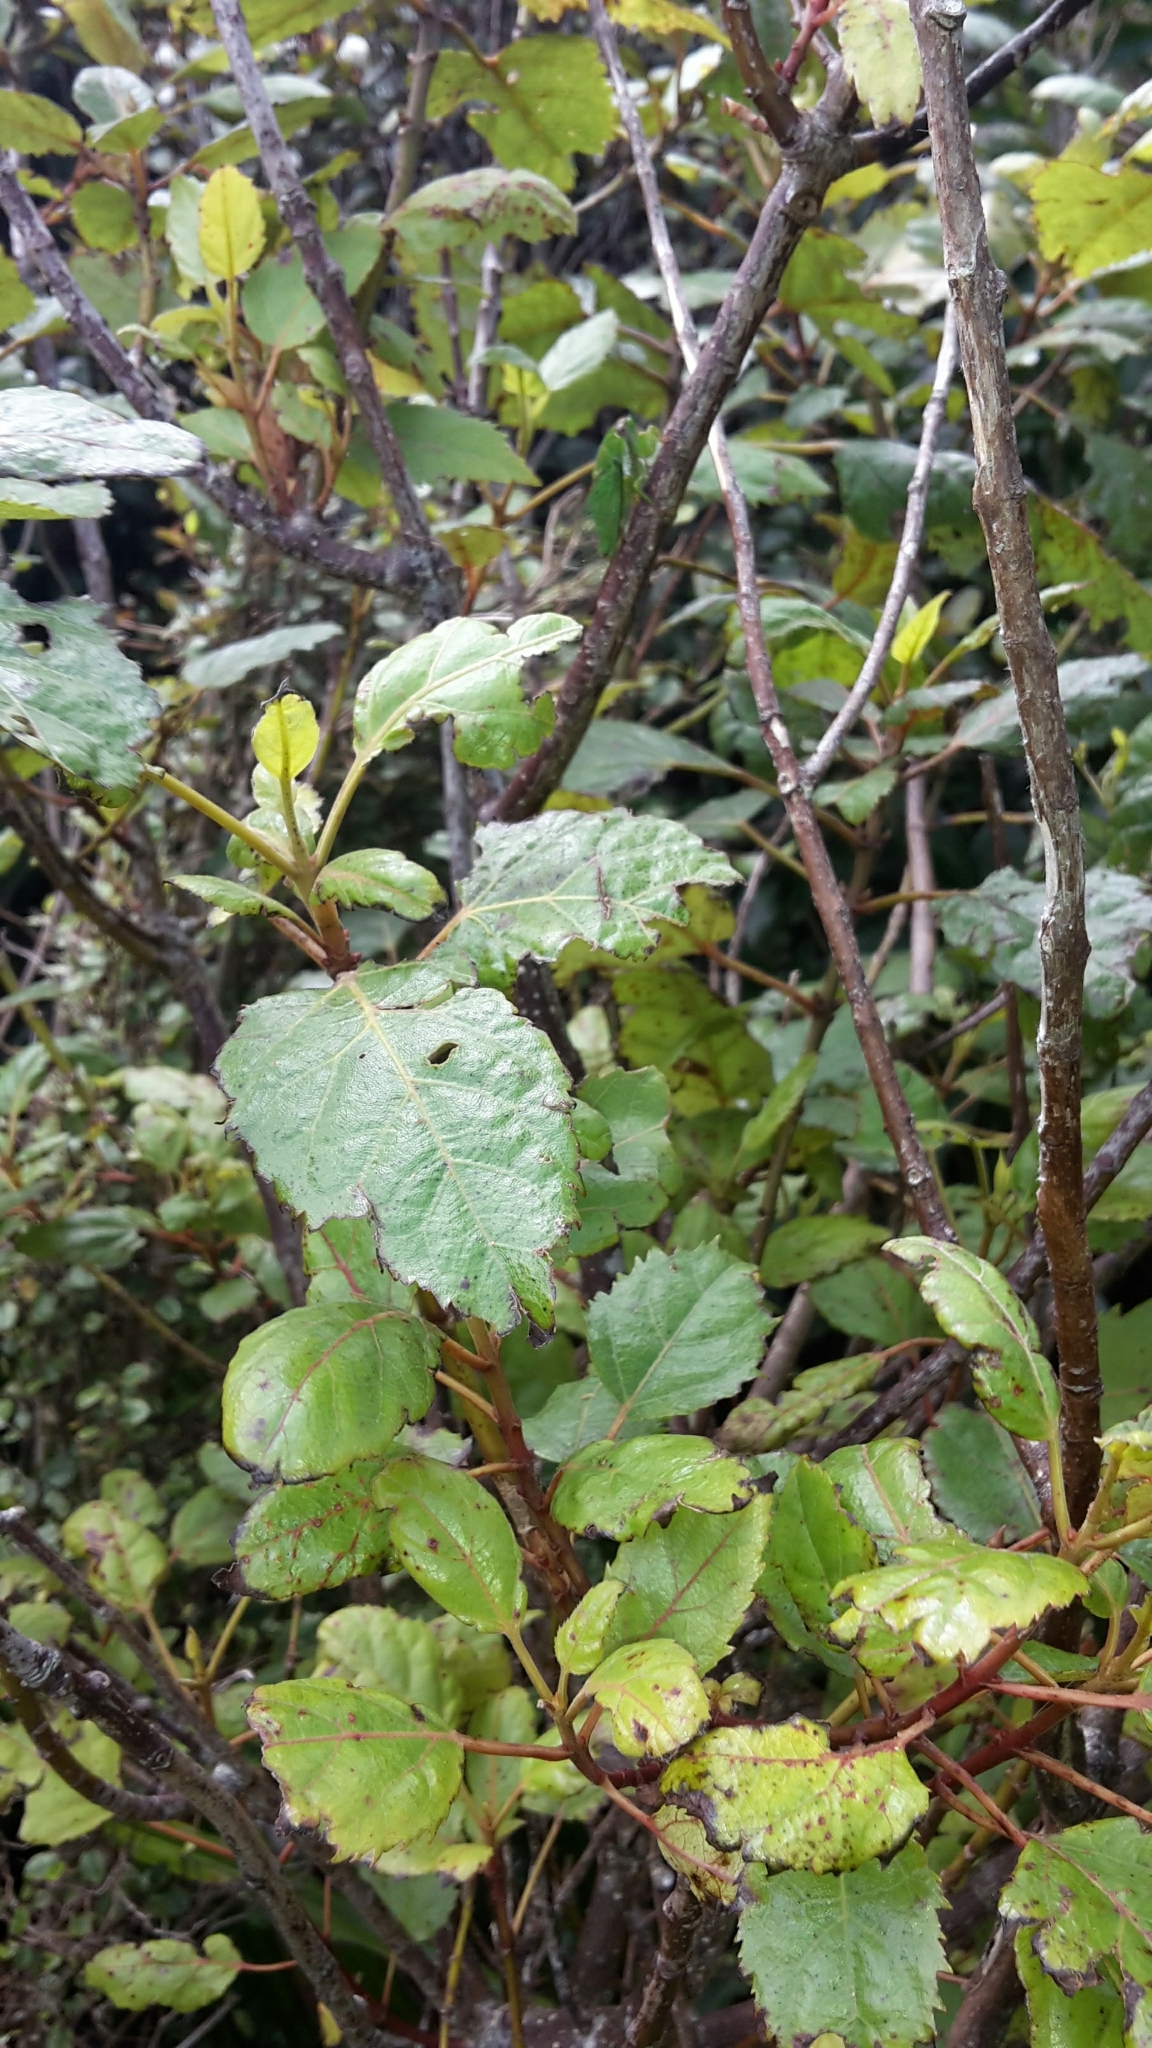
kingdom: Plantae
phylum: Tracheophyta
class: Magnoliopsida
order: Oxalidales
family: Elaeocarpaceae
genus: Aristotelia
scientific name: Aristotelia serrata
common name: New zealand wineberry
